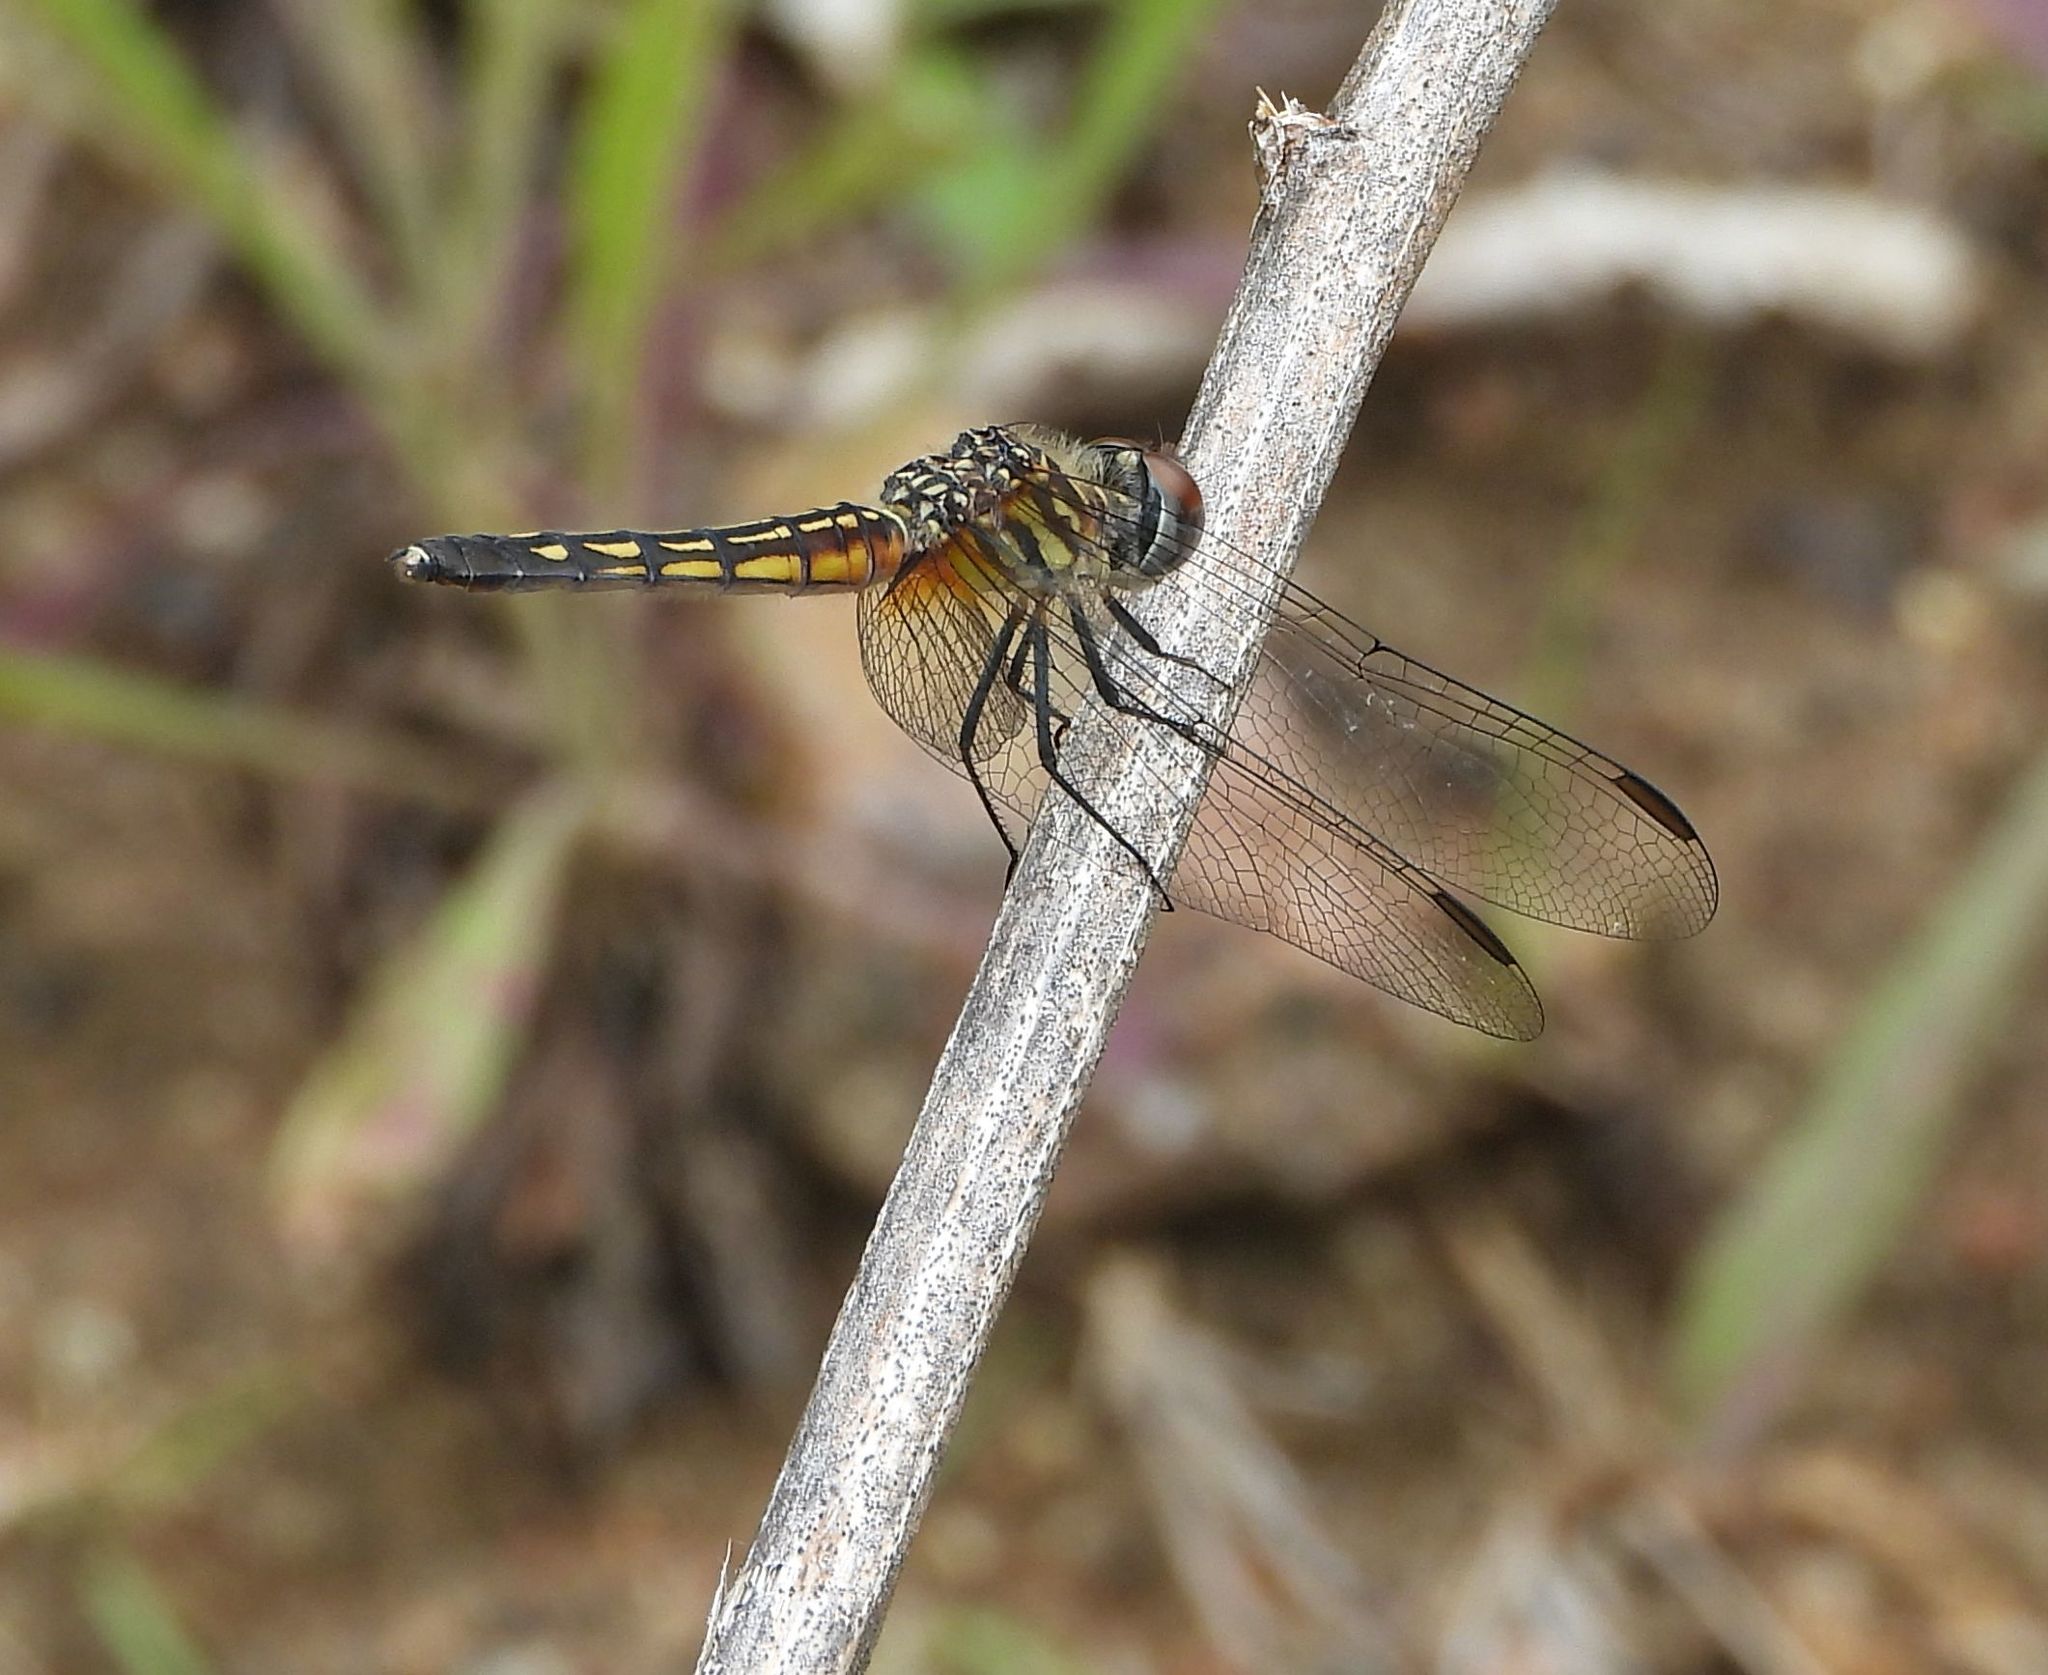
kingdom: Animalia
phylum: Arthropoda
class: Insecta
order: Odonata
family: Libellulidae
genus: Pachydiplax
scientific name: Pachydiplax longipennis
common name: Blue dasher
